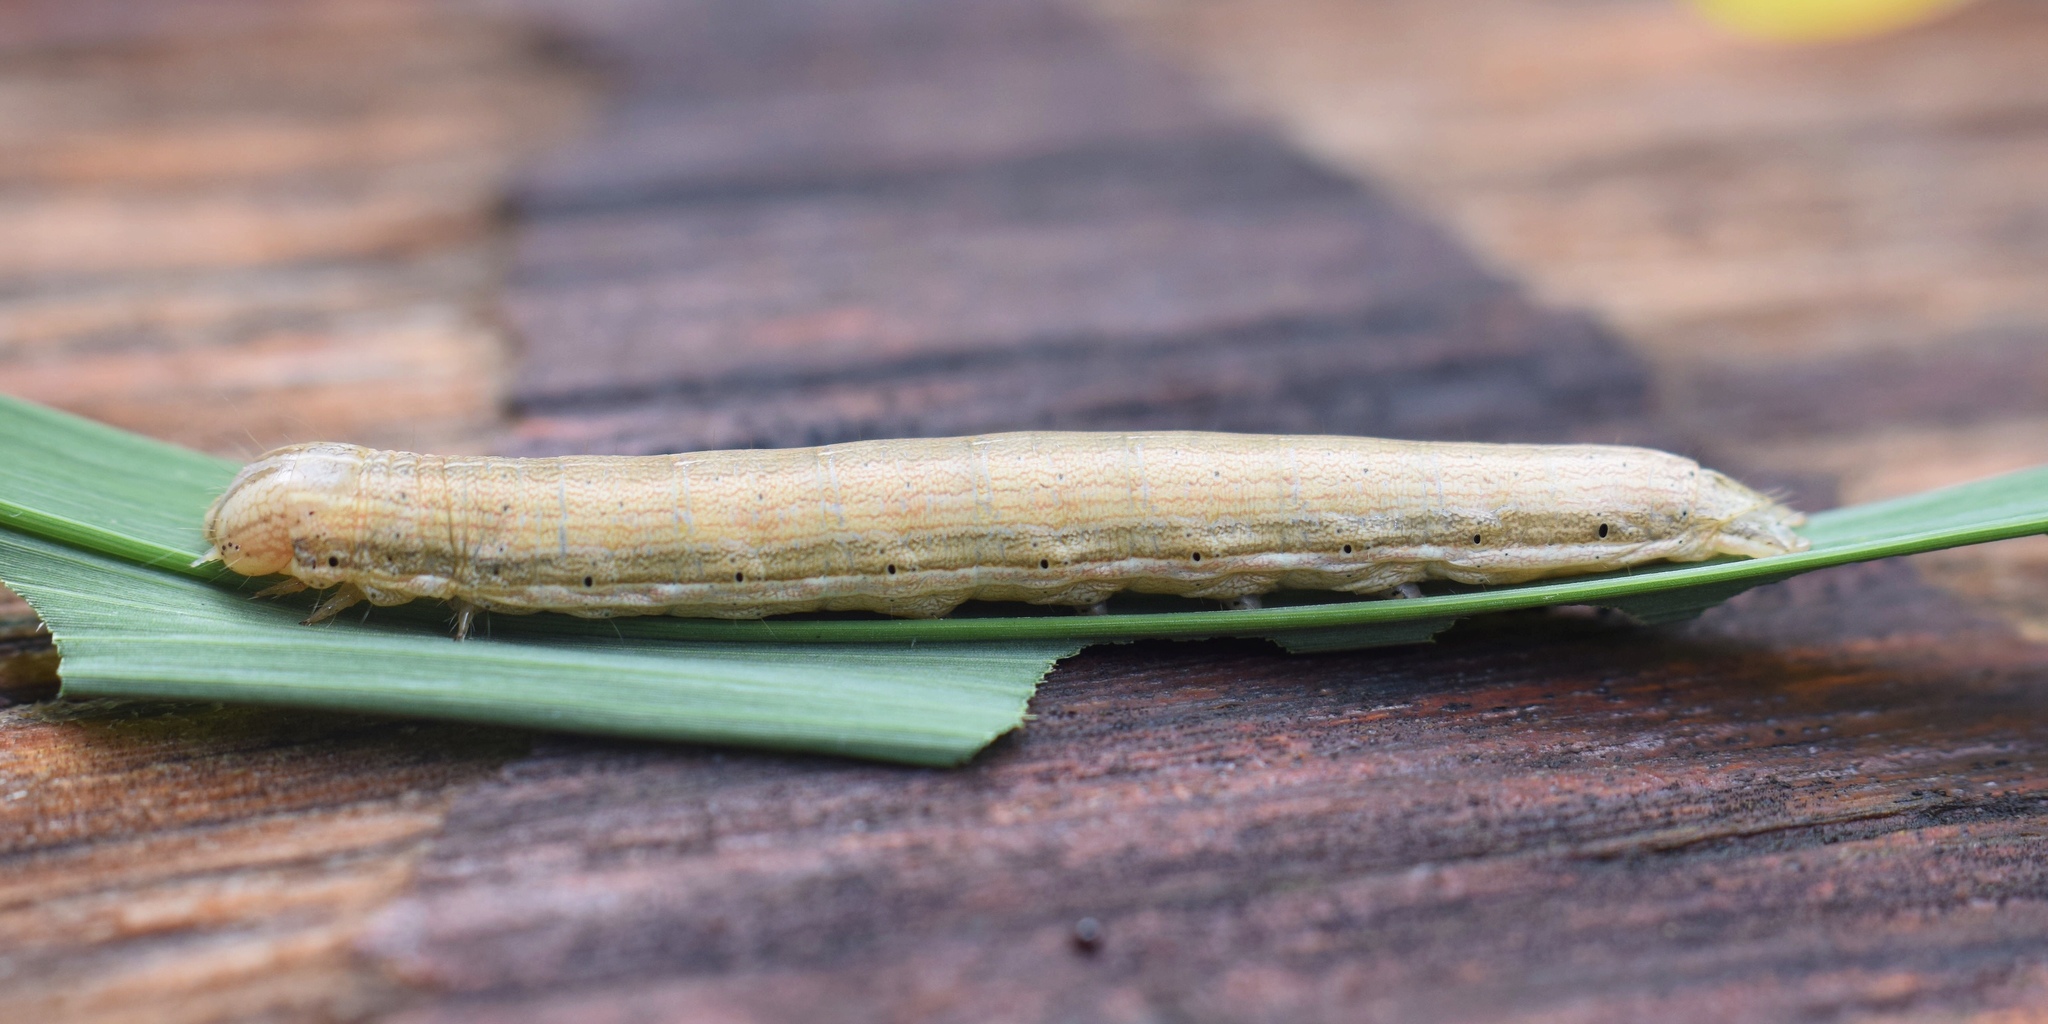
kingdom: Animalia
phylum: Arthropoda
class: Insecta
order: Lepidoptera
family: Noctuidae
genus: Omphalestra
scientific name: Omphalestra mesoglauca
